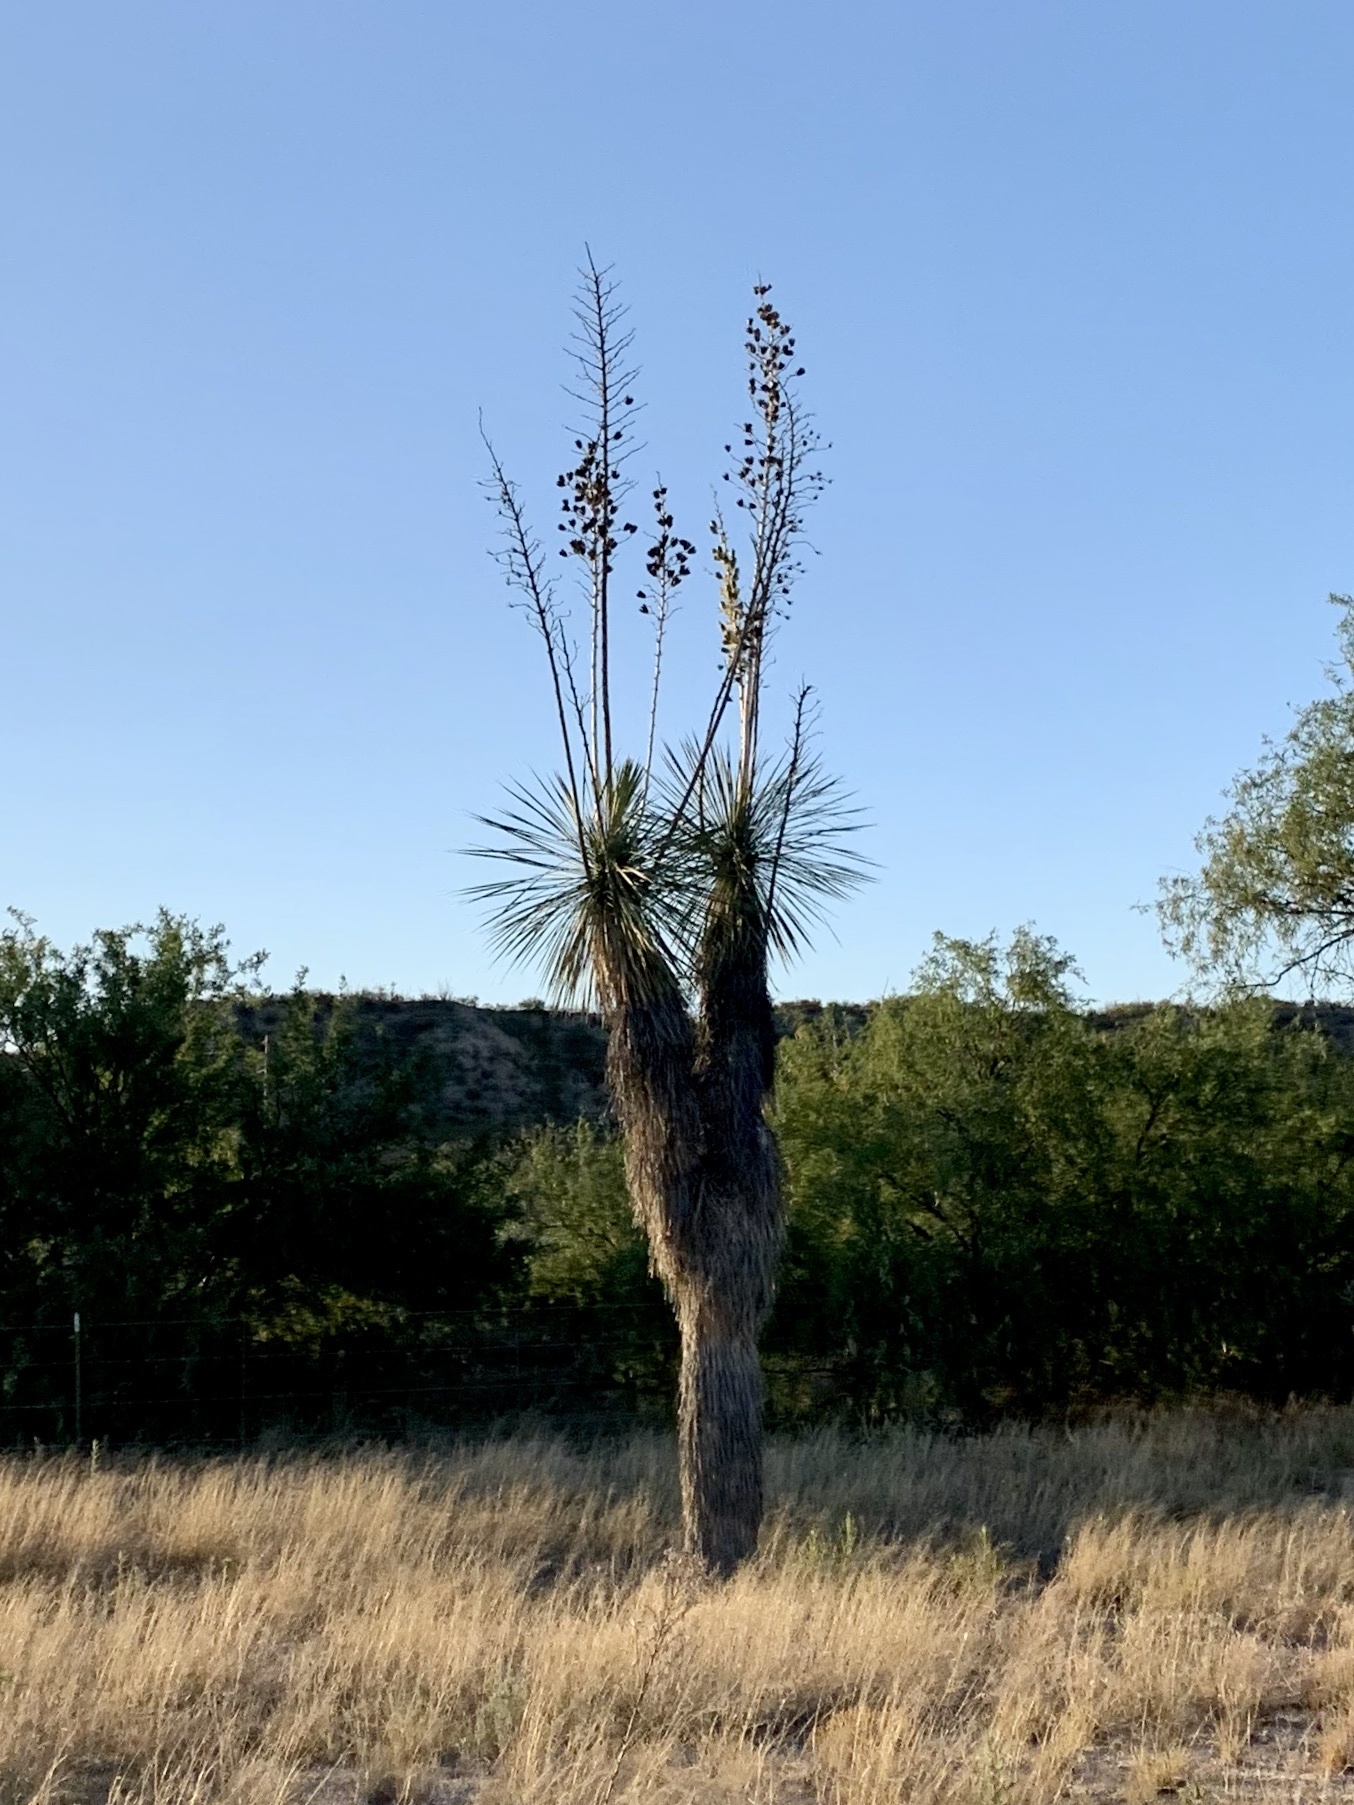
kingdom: Plantae
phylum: Tracheophyta
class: Liliopsida
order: Asparagales
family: Asparagaceae
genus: Yucca
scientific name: Yucca elata
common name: Palmella
